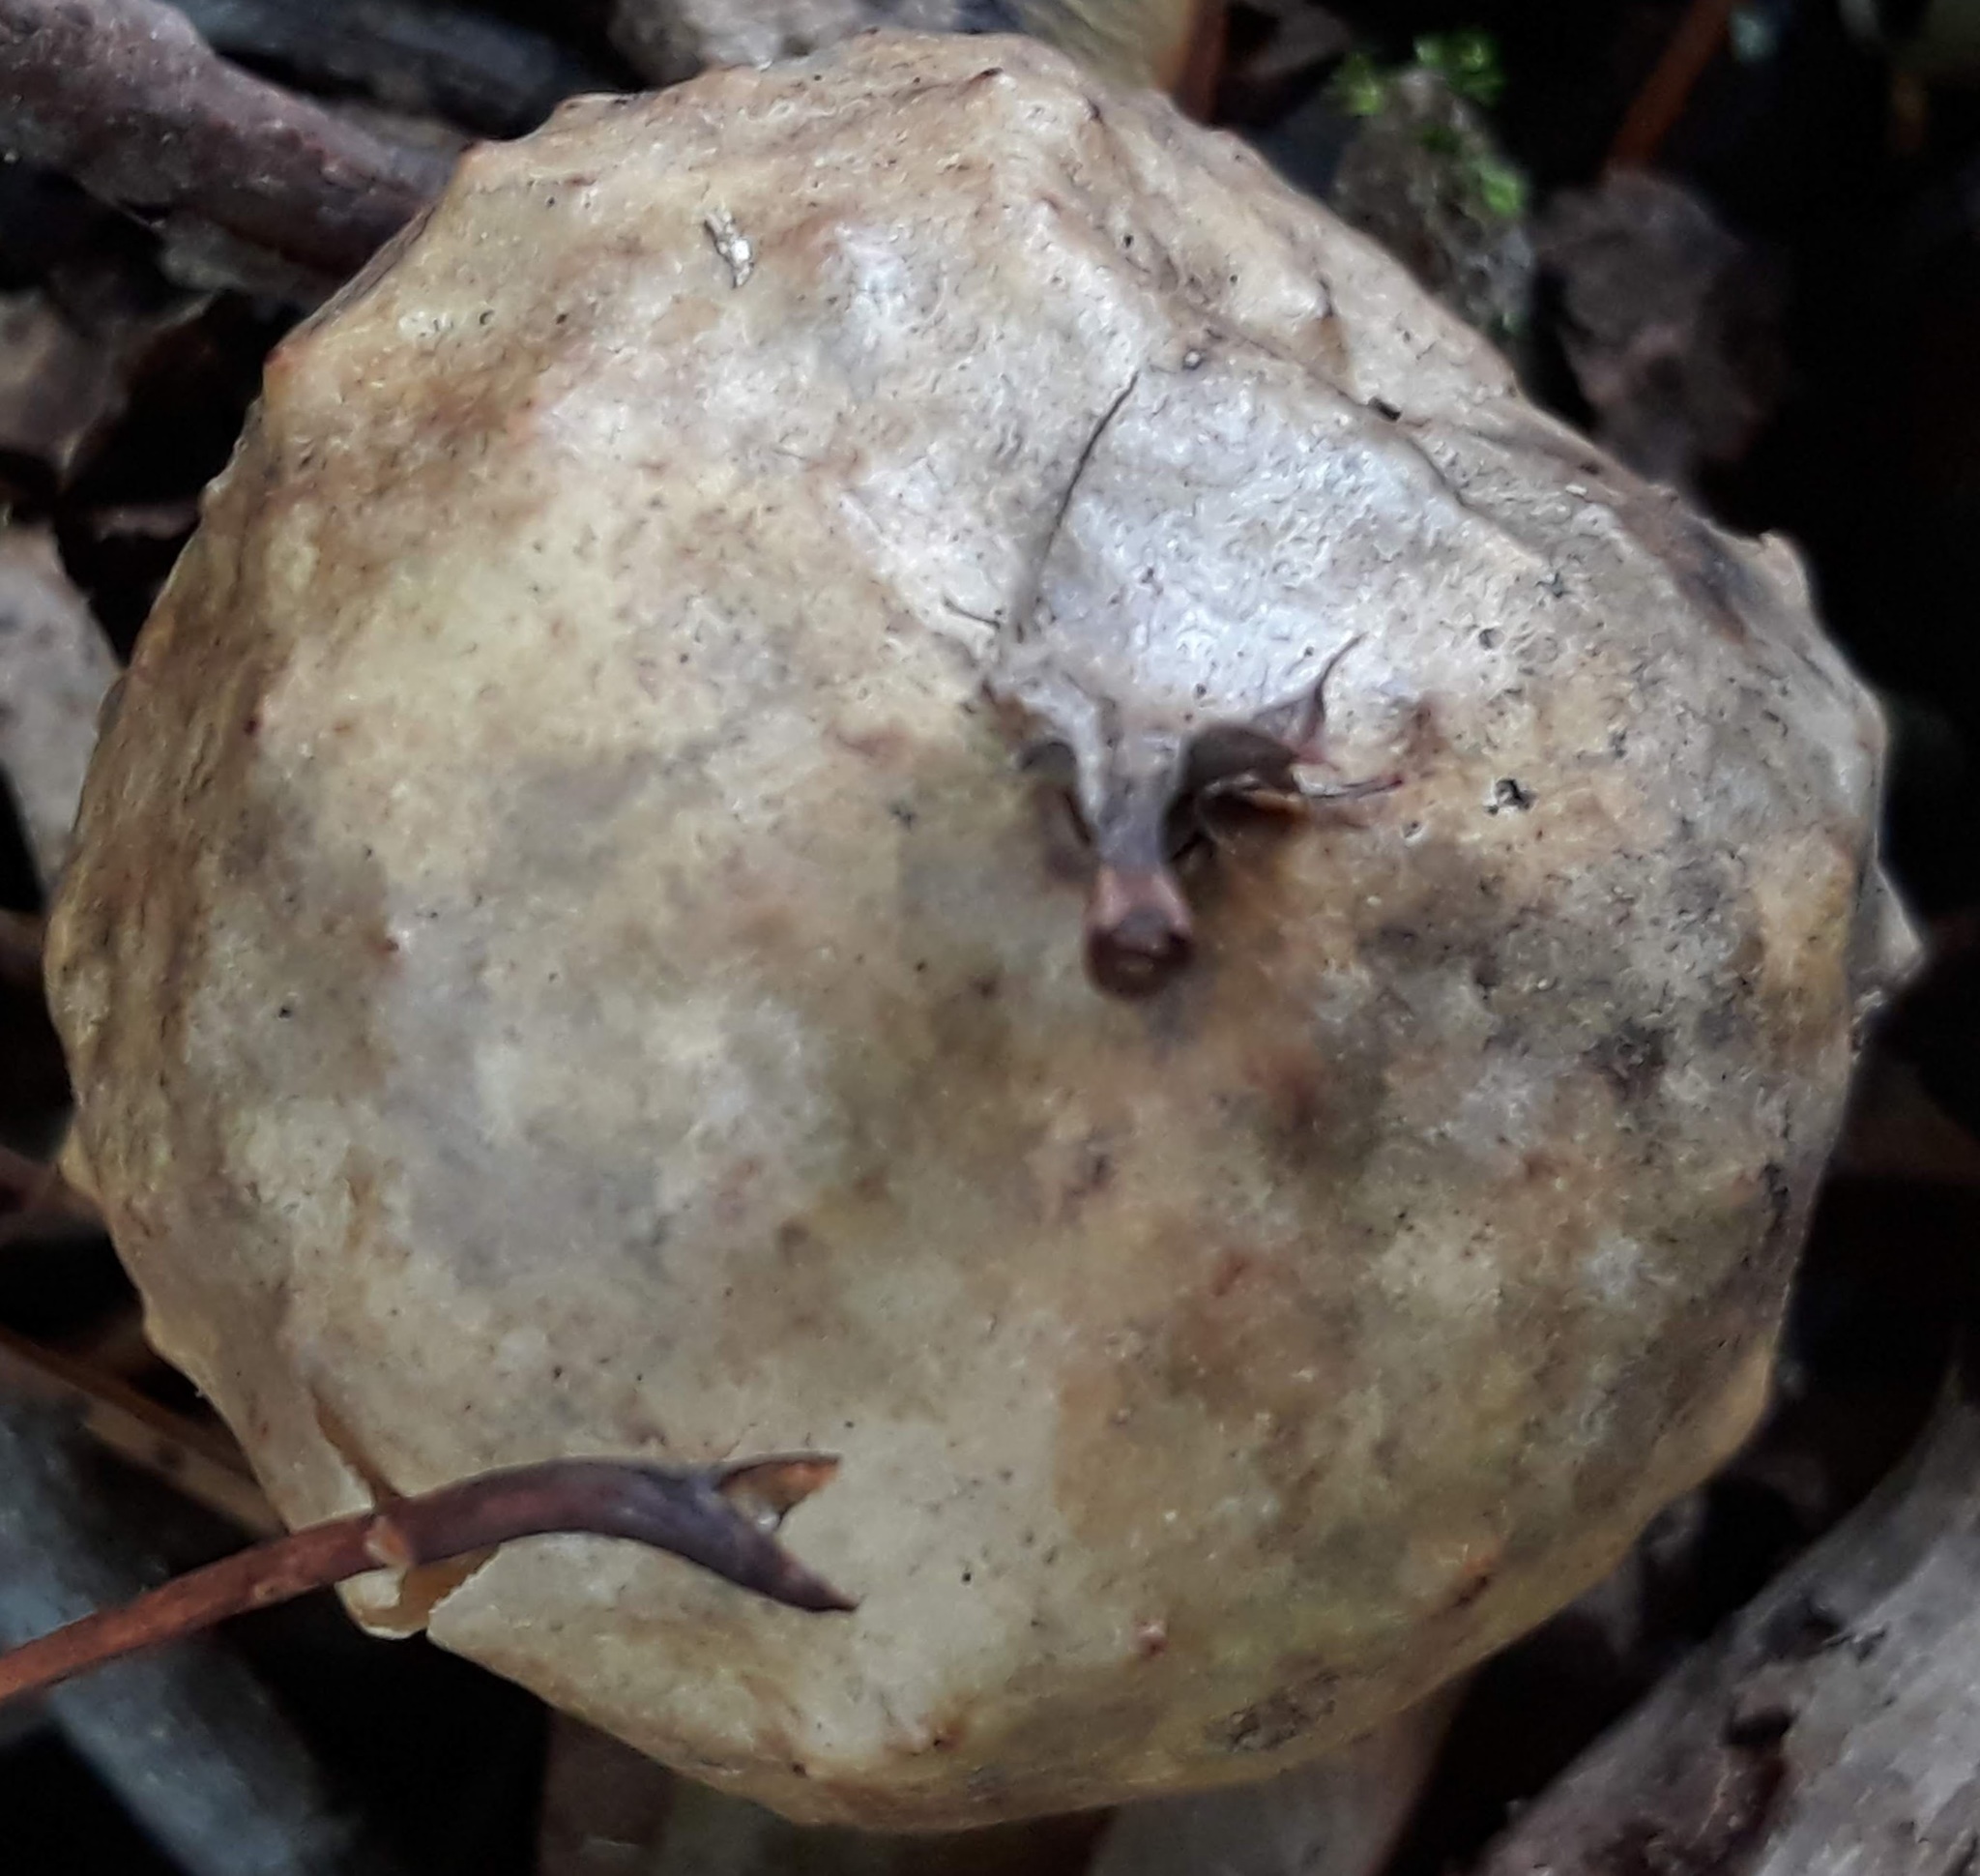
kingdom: Animalia
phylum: Arthropoda
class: Insecta
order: Hymenoptera
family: Cynipidae
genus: Amphibolips
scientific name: Amphibolips
